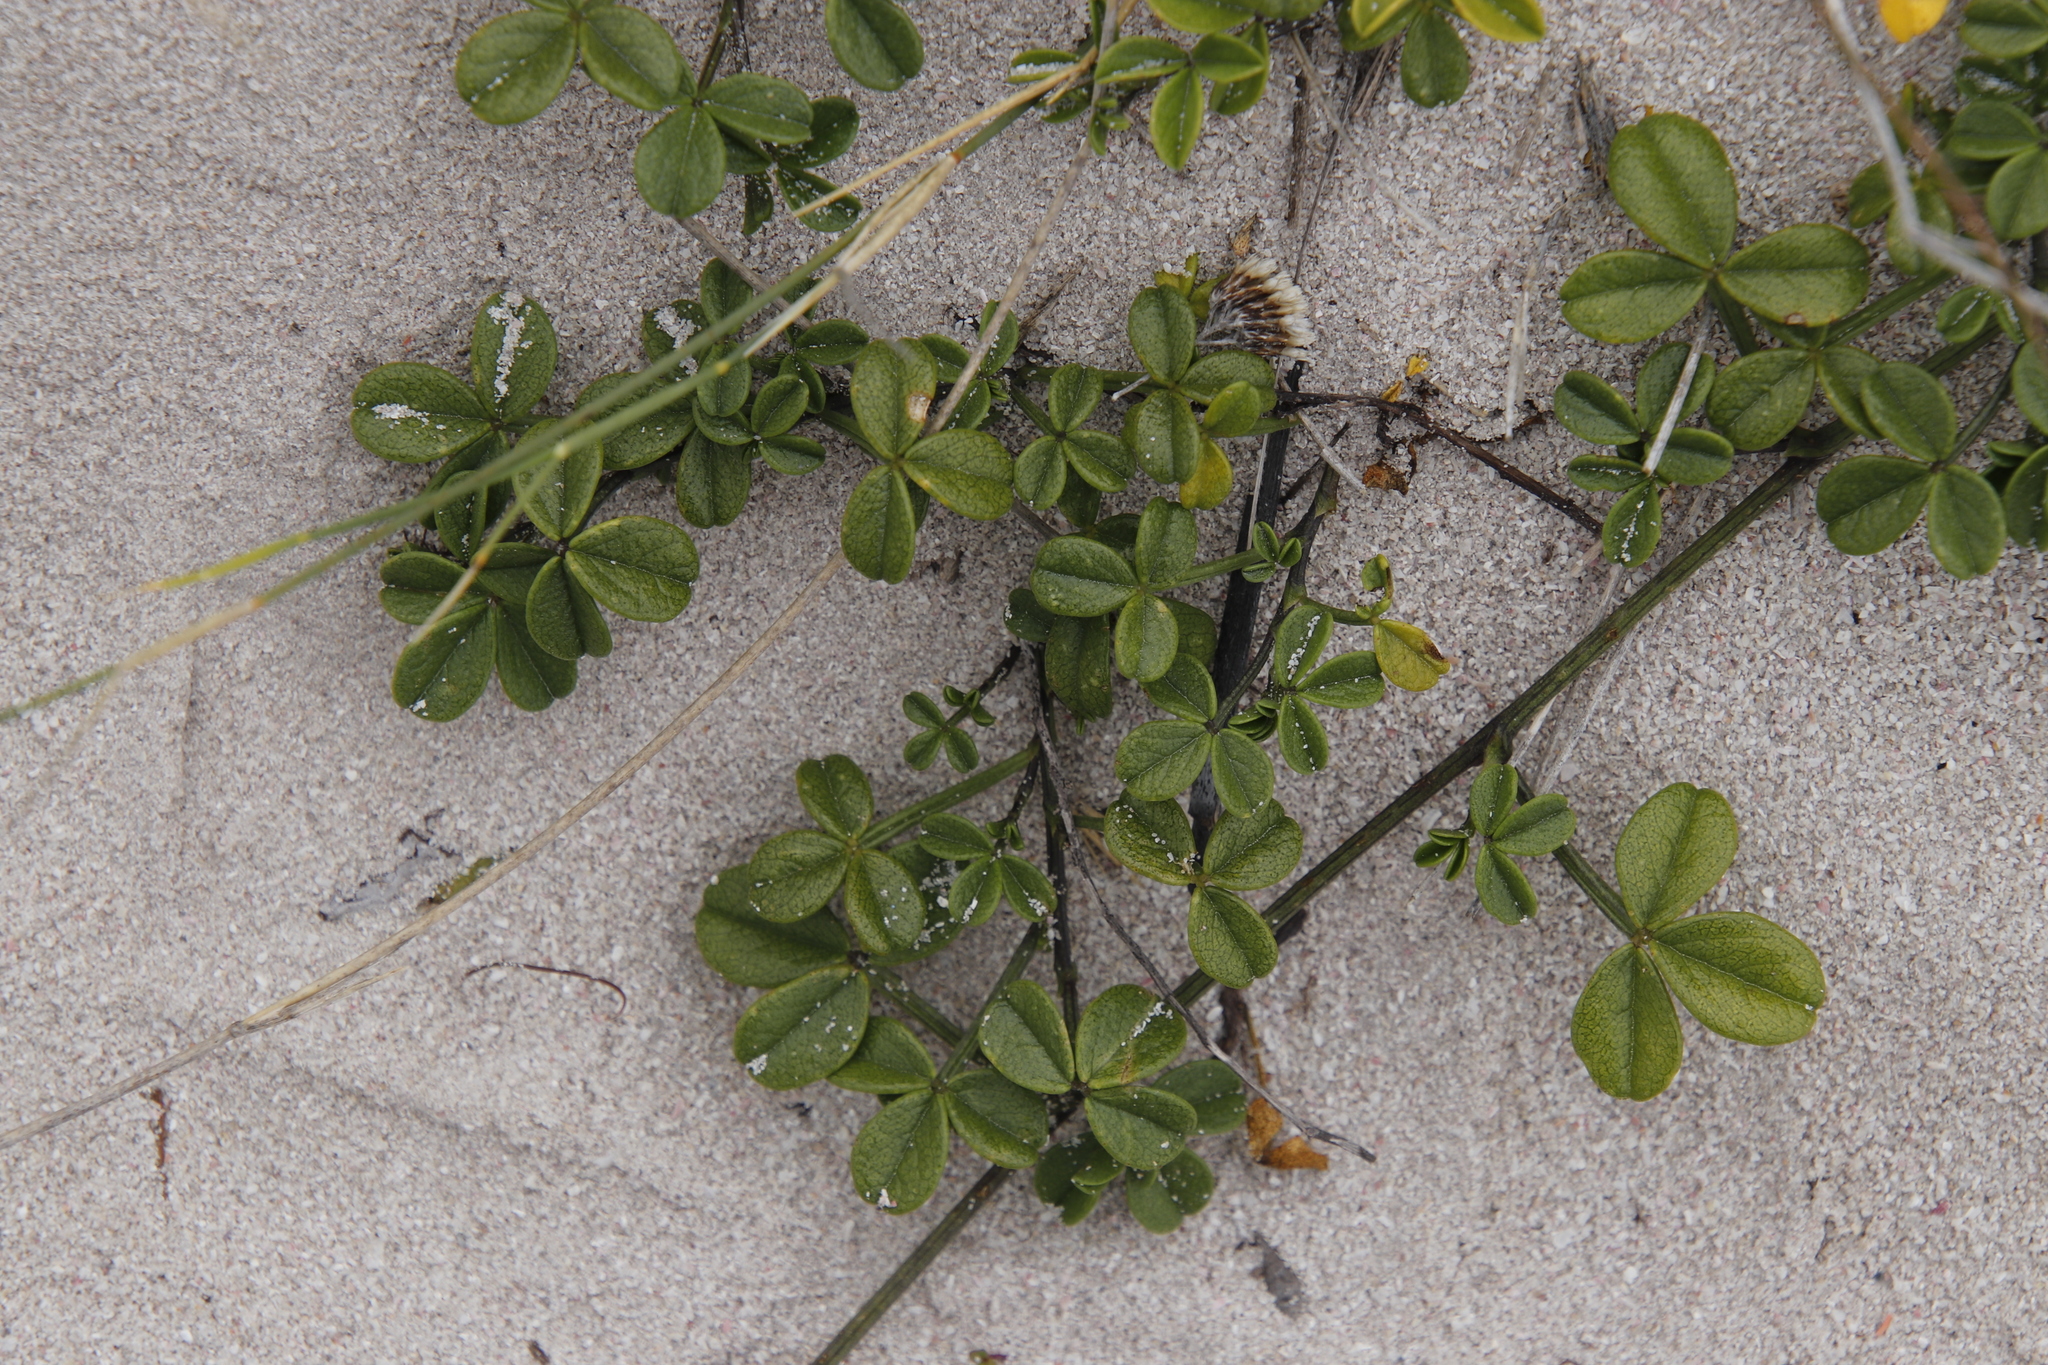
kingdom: Plantae
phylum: Tracheophyta
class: Magnoliopsida
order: Fabales
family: Fabaceae
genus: Psoralea
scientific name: Psoralea repens
